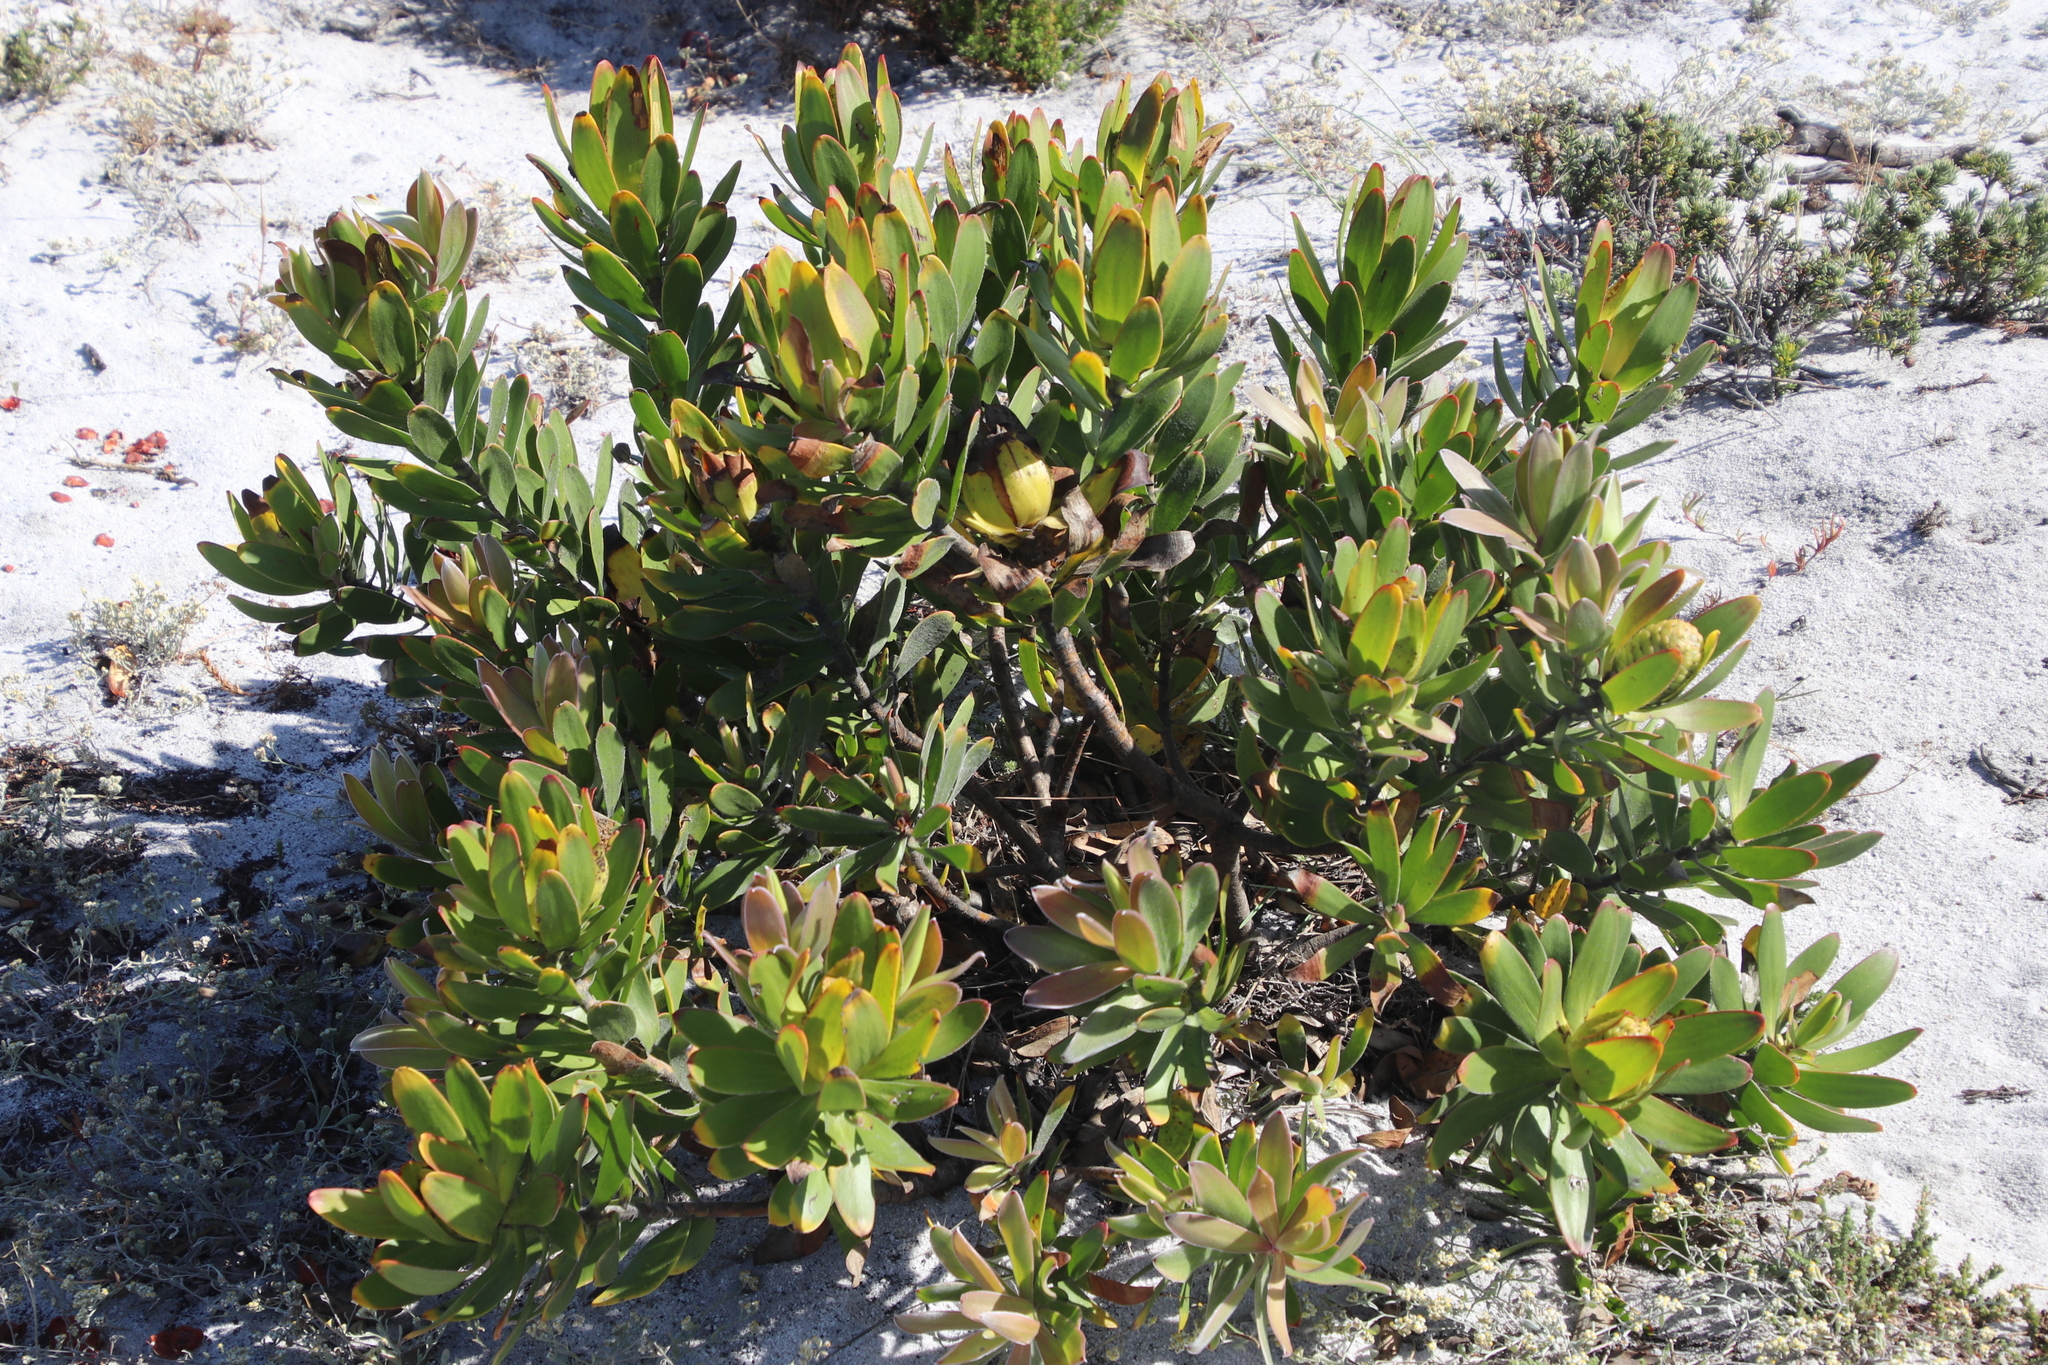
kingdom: Plantae
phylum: Tracheophyta
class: Magnoliopsida
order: Proteales
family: Proteaceae
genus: Leucadendron
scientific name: Leucadendron laureolum
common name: Golden sunshinebush
